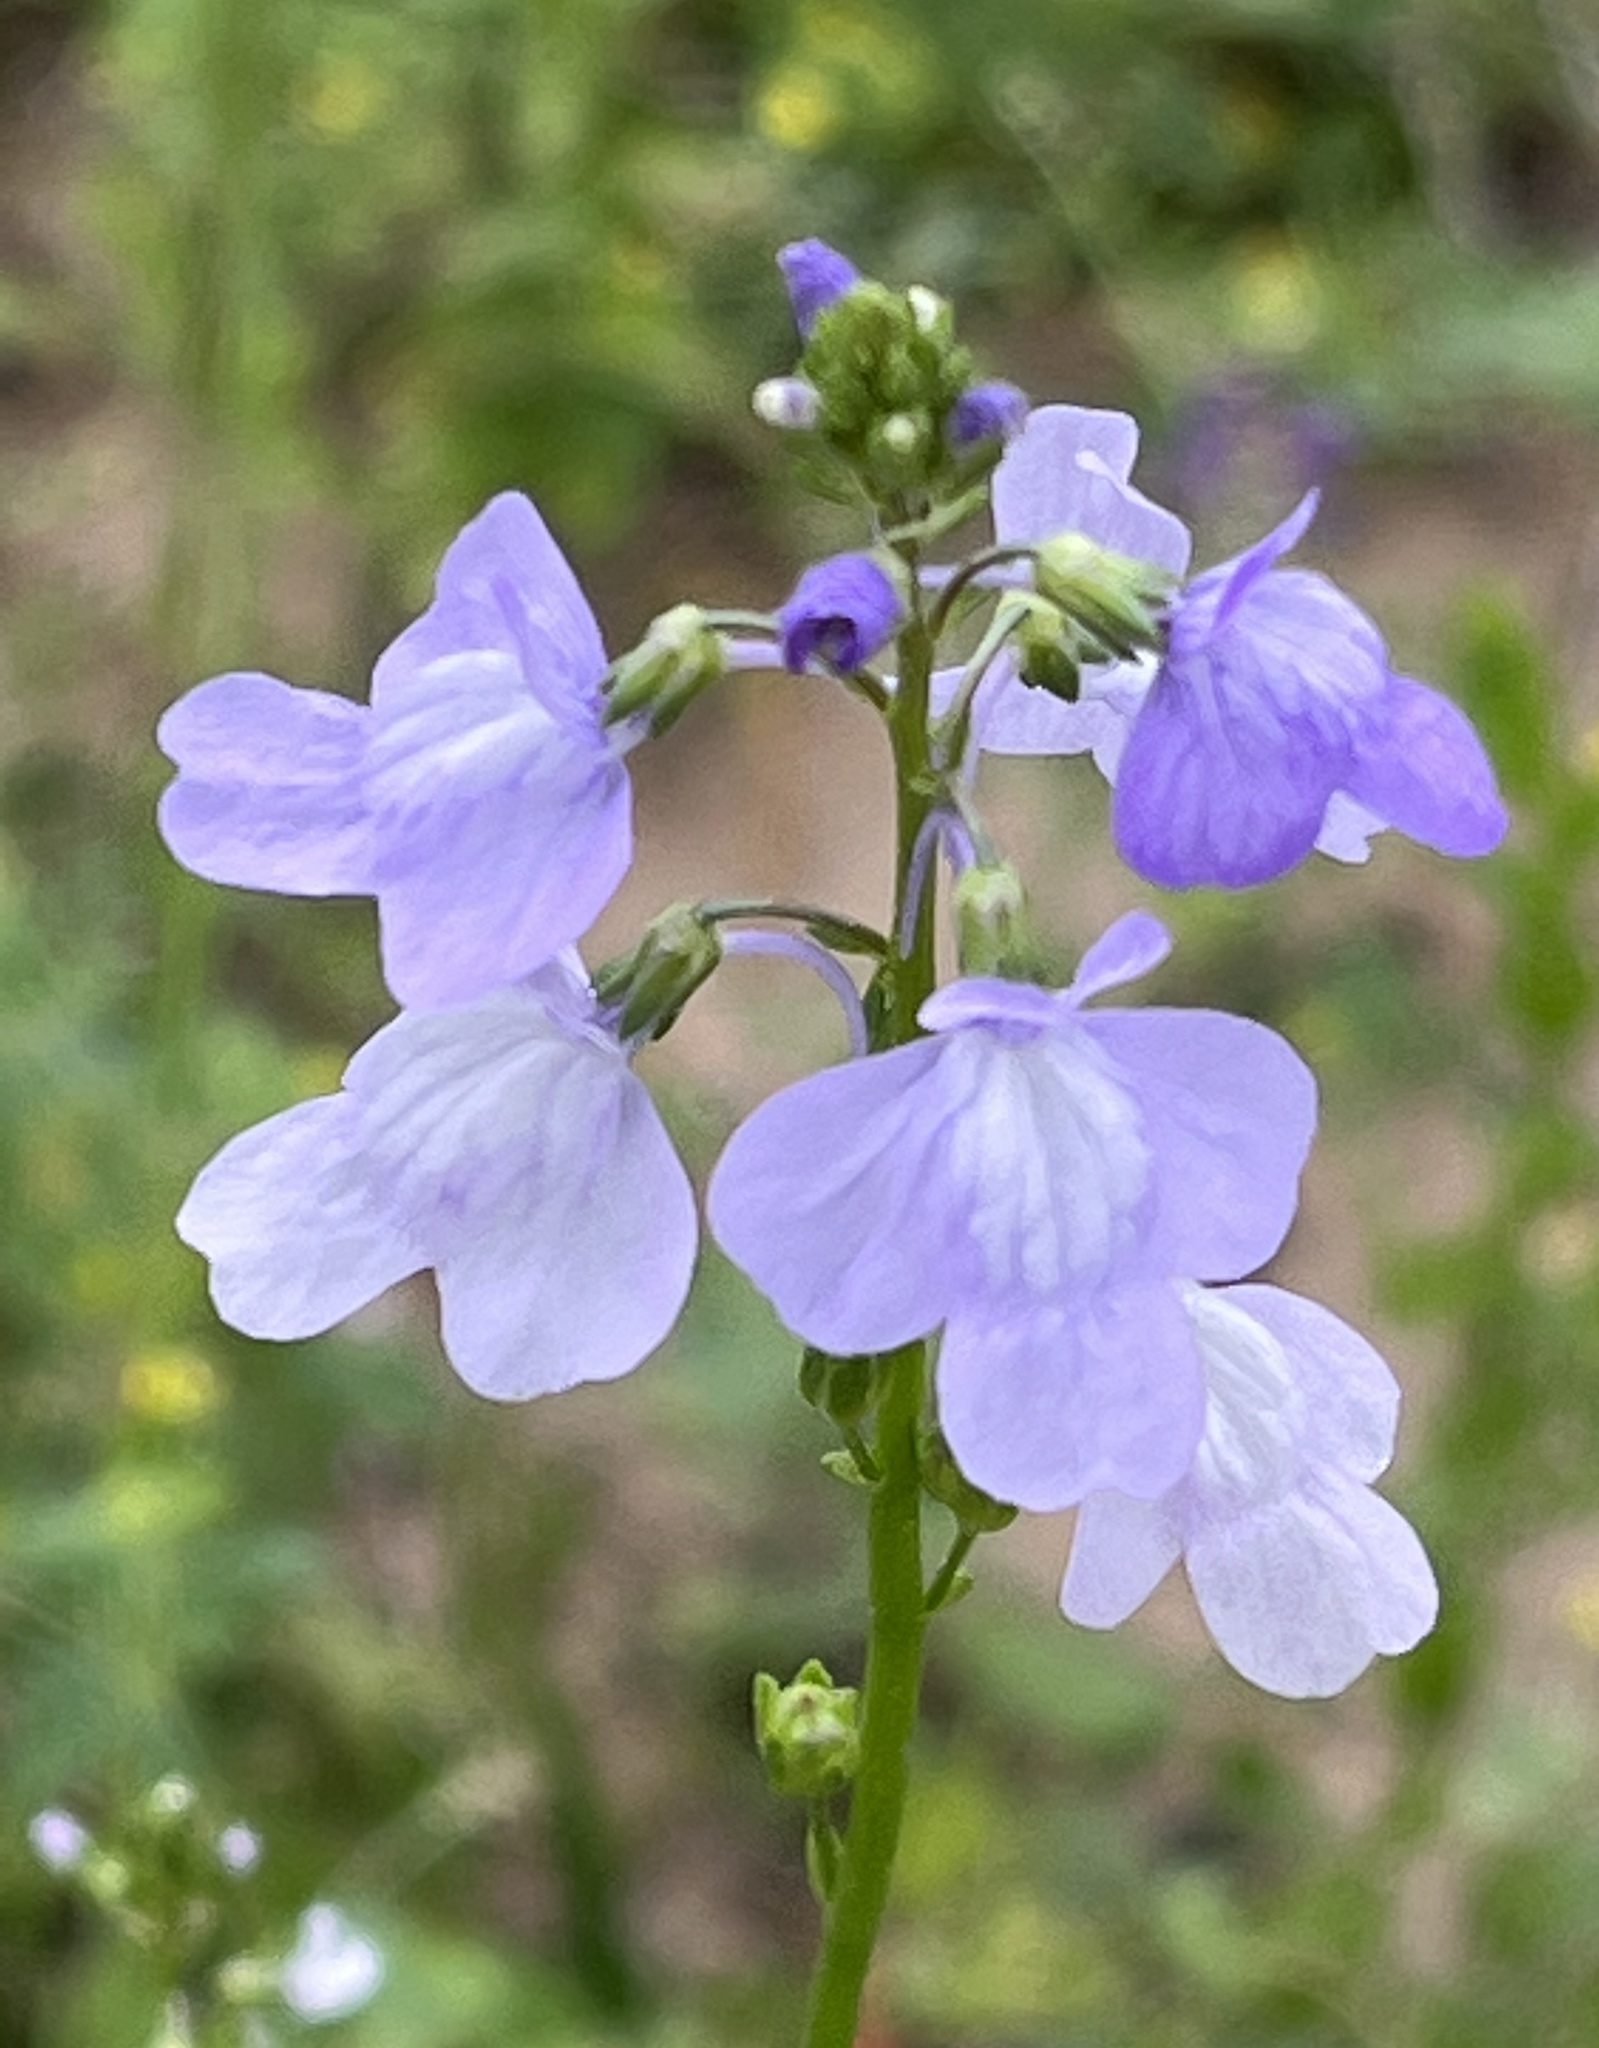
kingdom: Plantae
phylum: Tracheophyta
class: Magnoliopsida
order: Lamiales
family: Plantaginaceae
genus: Nuttallanthus
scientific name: Nuttallanthus texanus
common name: Texas toadflax
